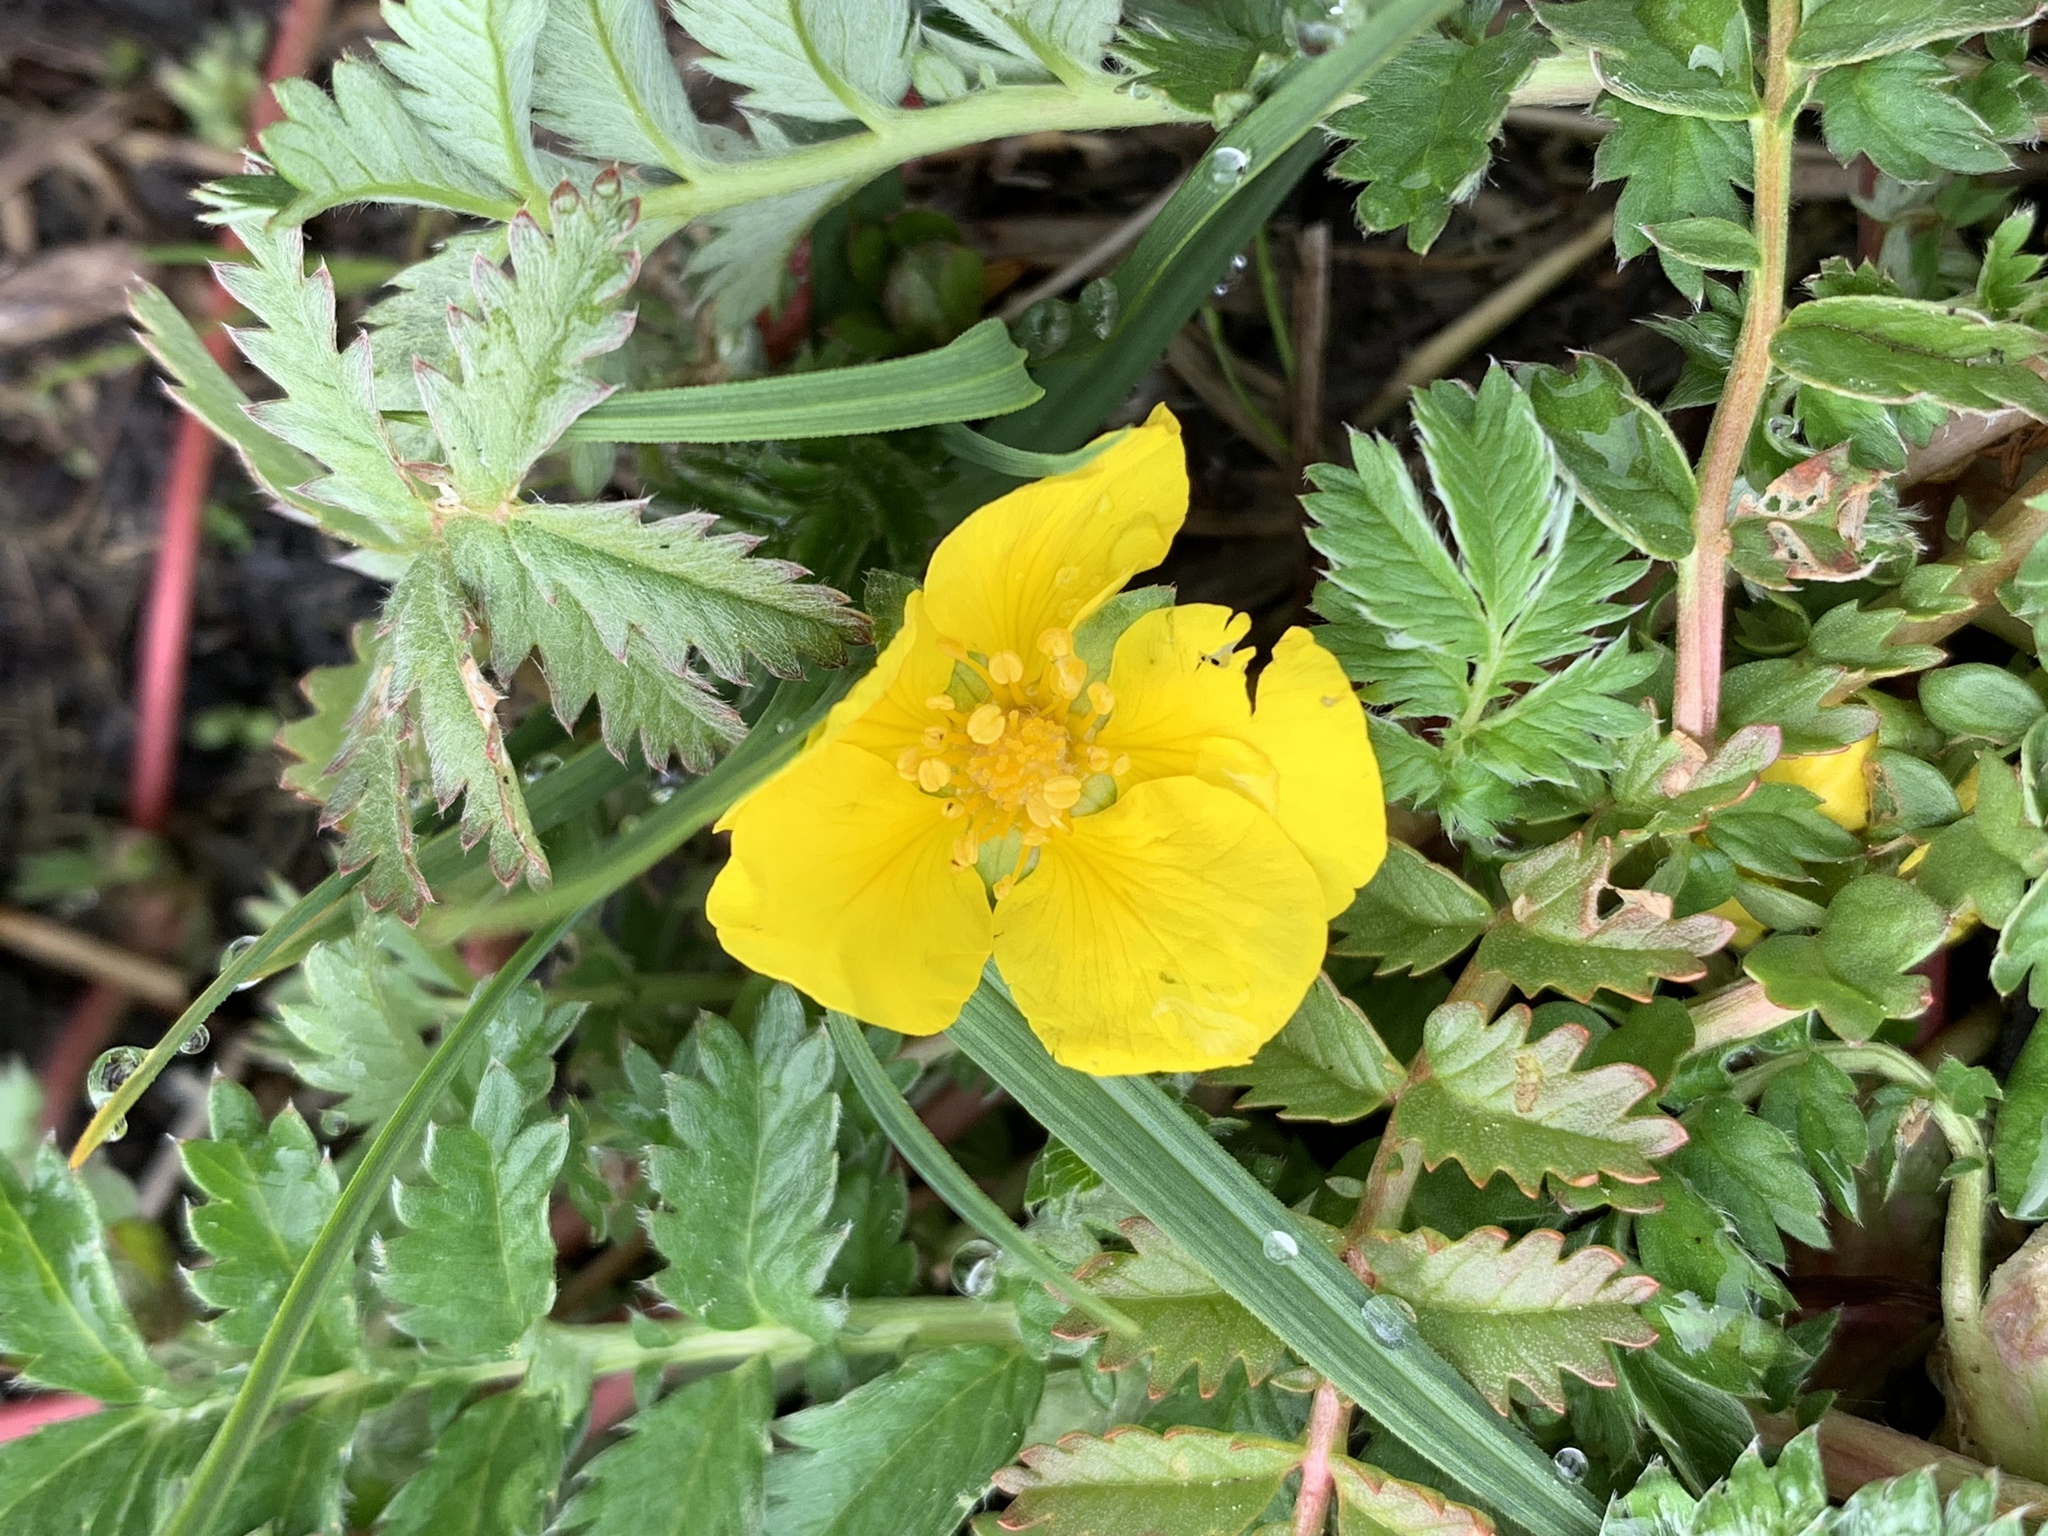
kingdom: Plantae
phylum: Tracheophyta
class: Magnoliopsida
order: Rosales
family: Rosaceae
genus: Argentina
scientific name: Argentina anserina
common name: Common silverweed
